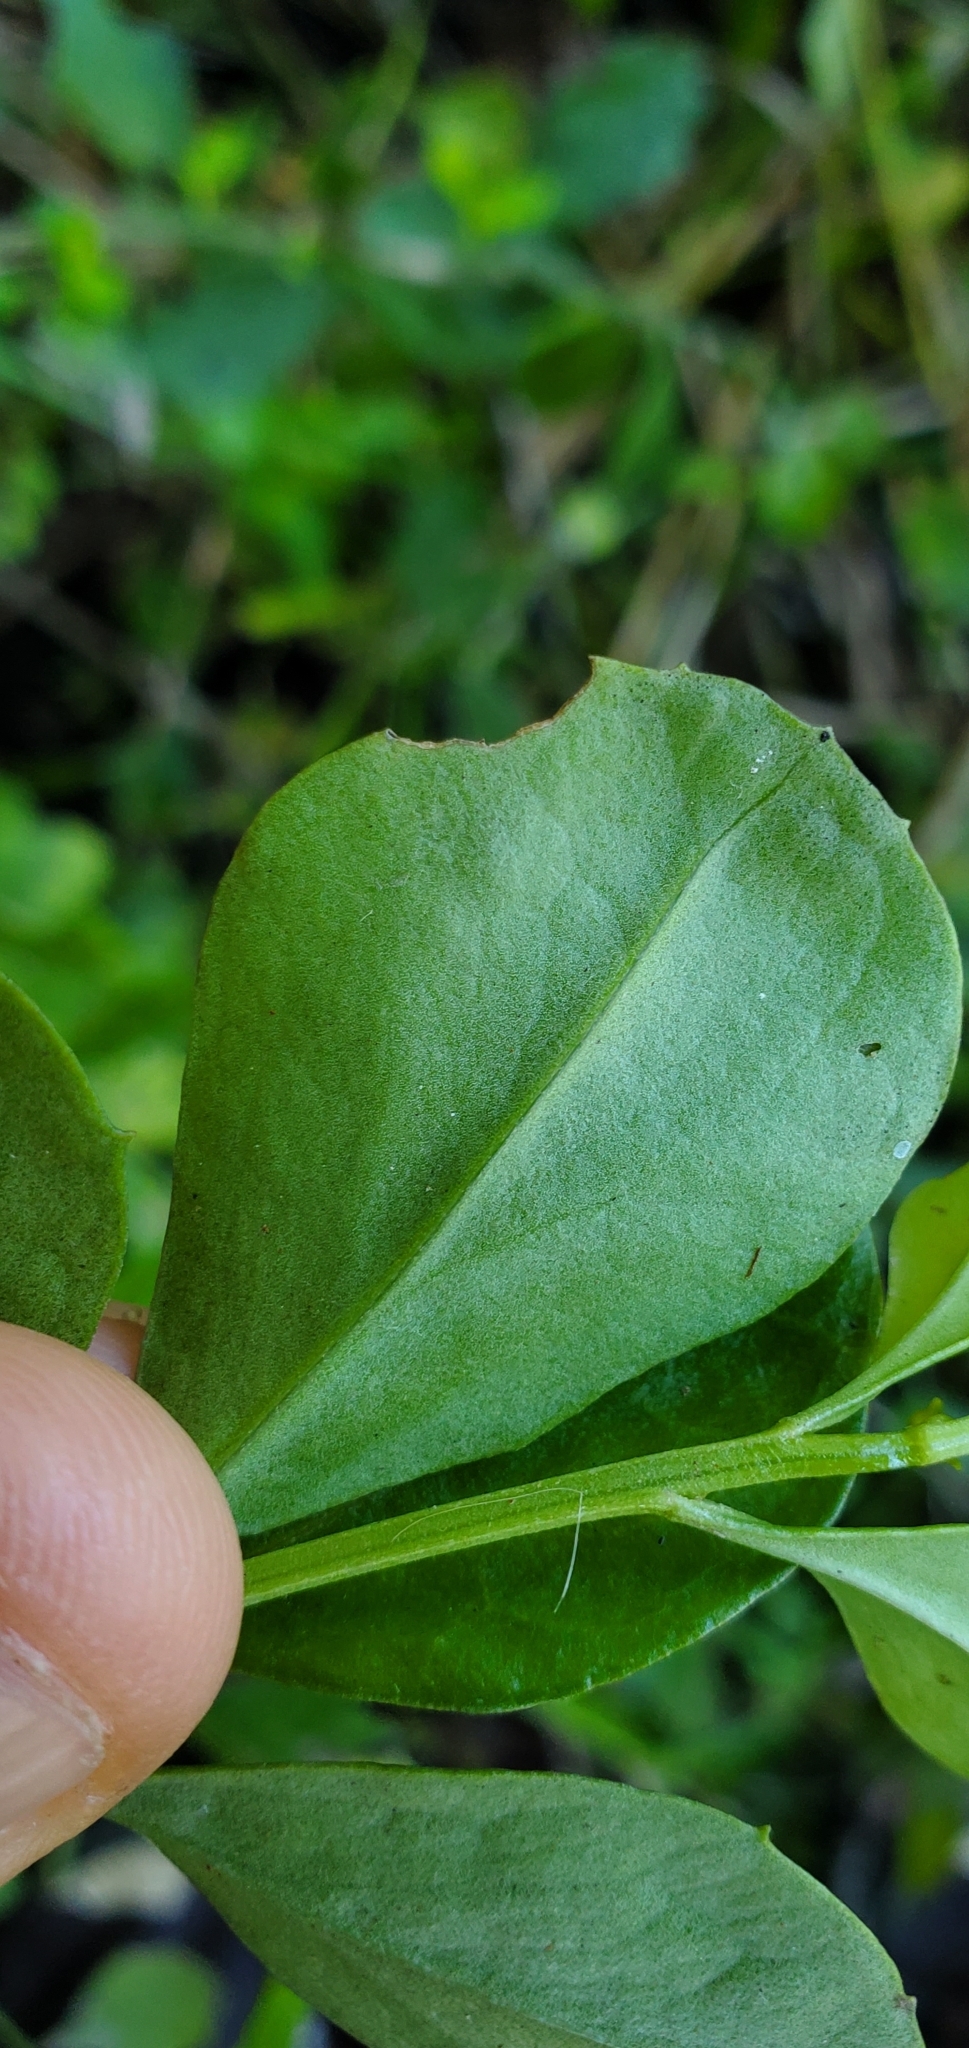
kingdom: Plantae
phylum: Tracheophyta
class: Magnoliopsida
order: Asterales
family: Asteraceae
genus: Baccharis
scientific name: Baccharis glomeruliflora
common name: Silverling groundsel bush
